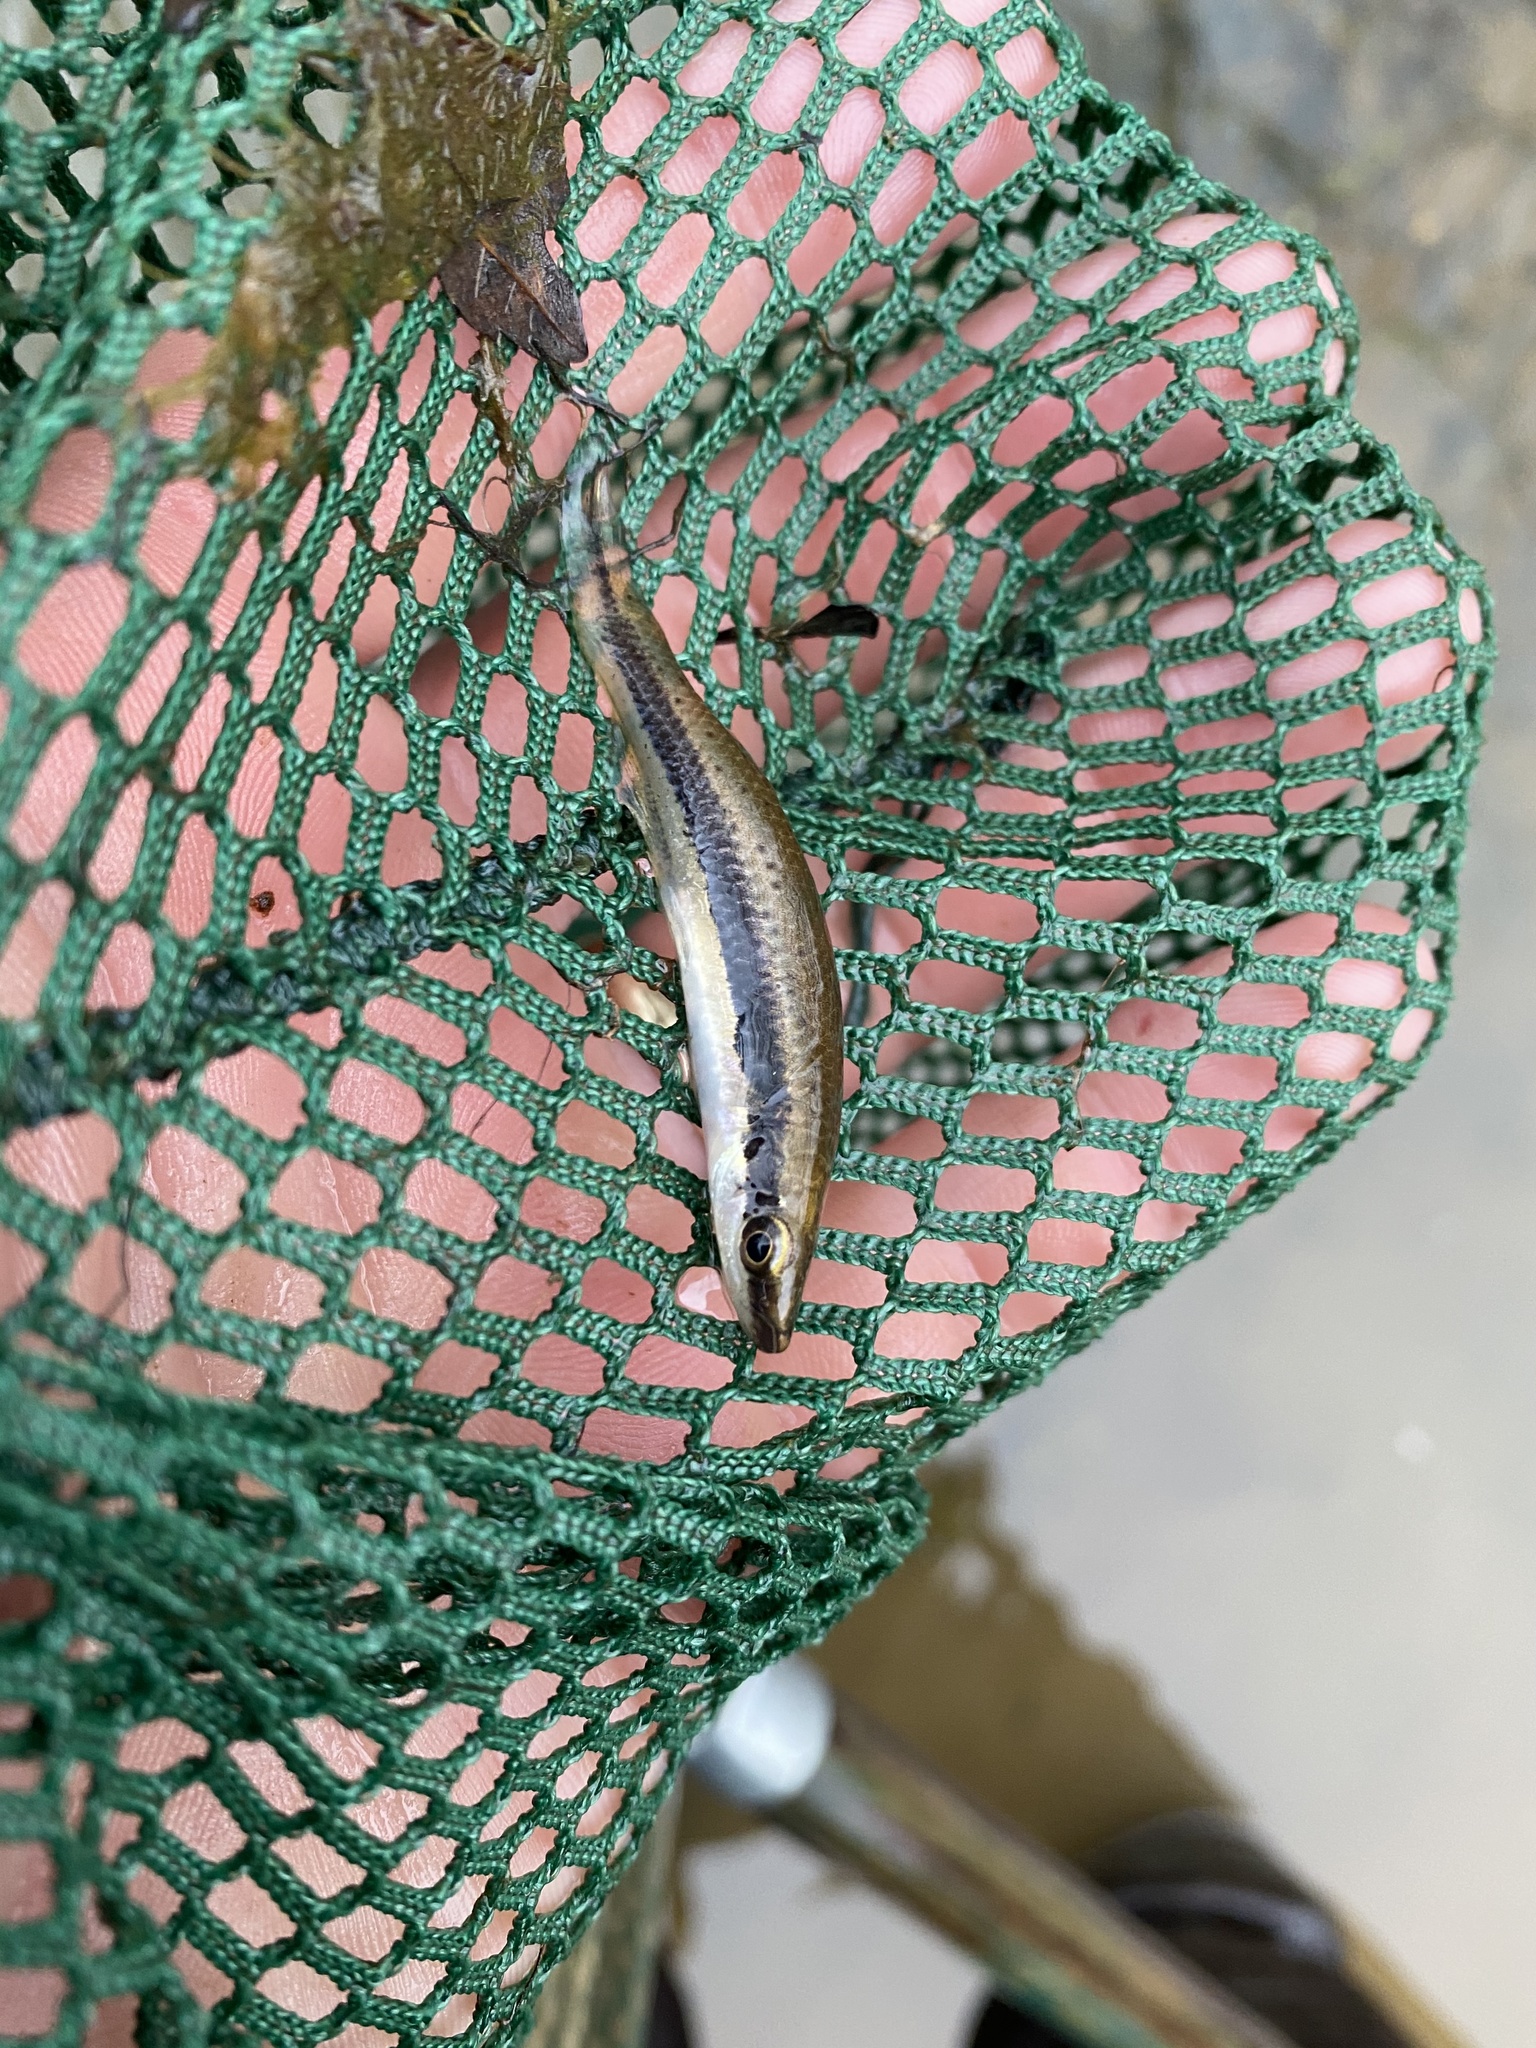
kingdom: Animalia
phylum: Chordata
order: Cyprinodontiformes
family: Fundulidae
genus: Fundulus
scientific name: Fundulus olivaceus
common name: Blackspotted topminnow
